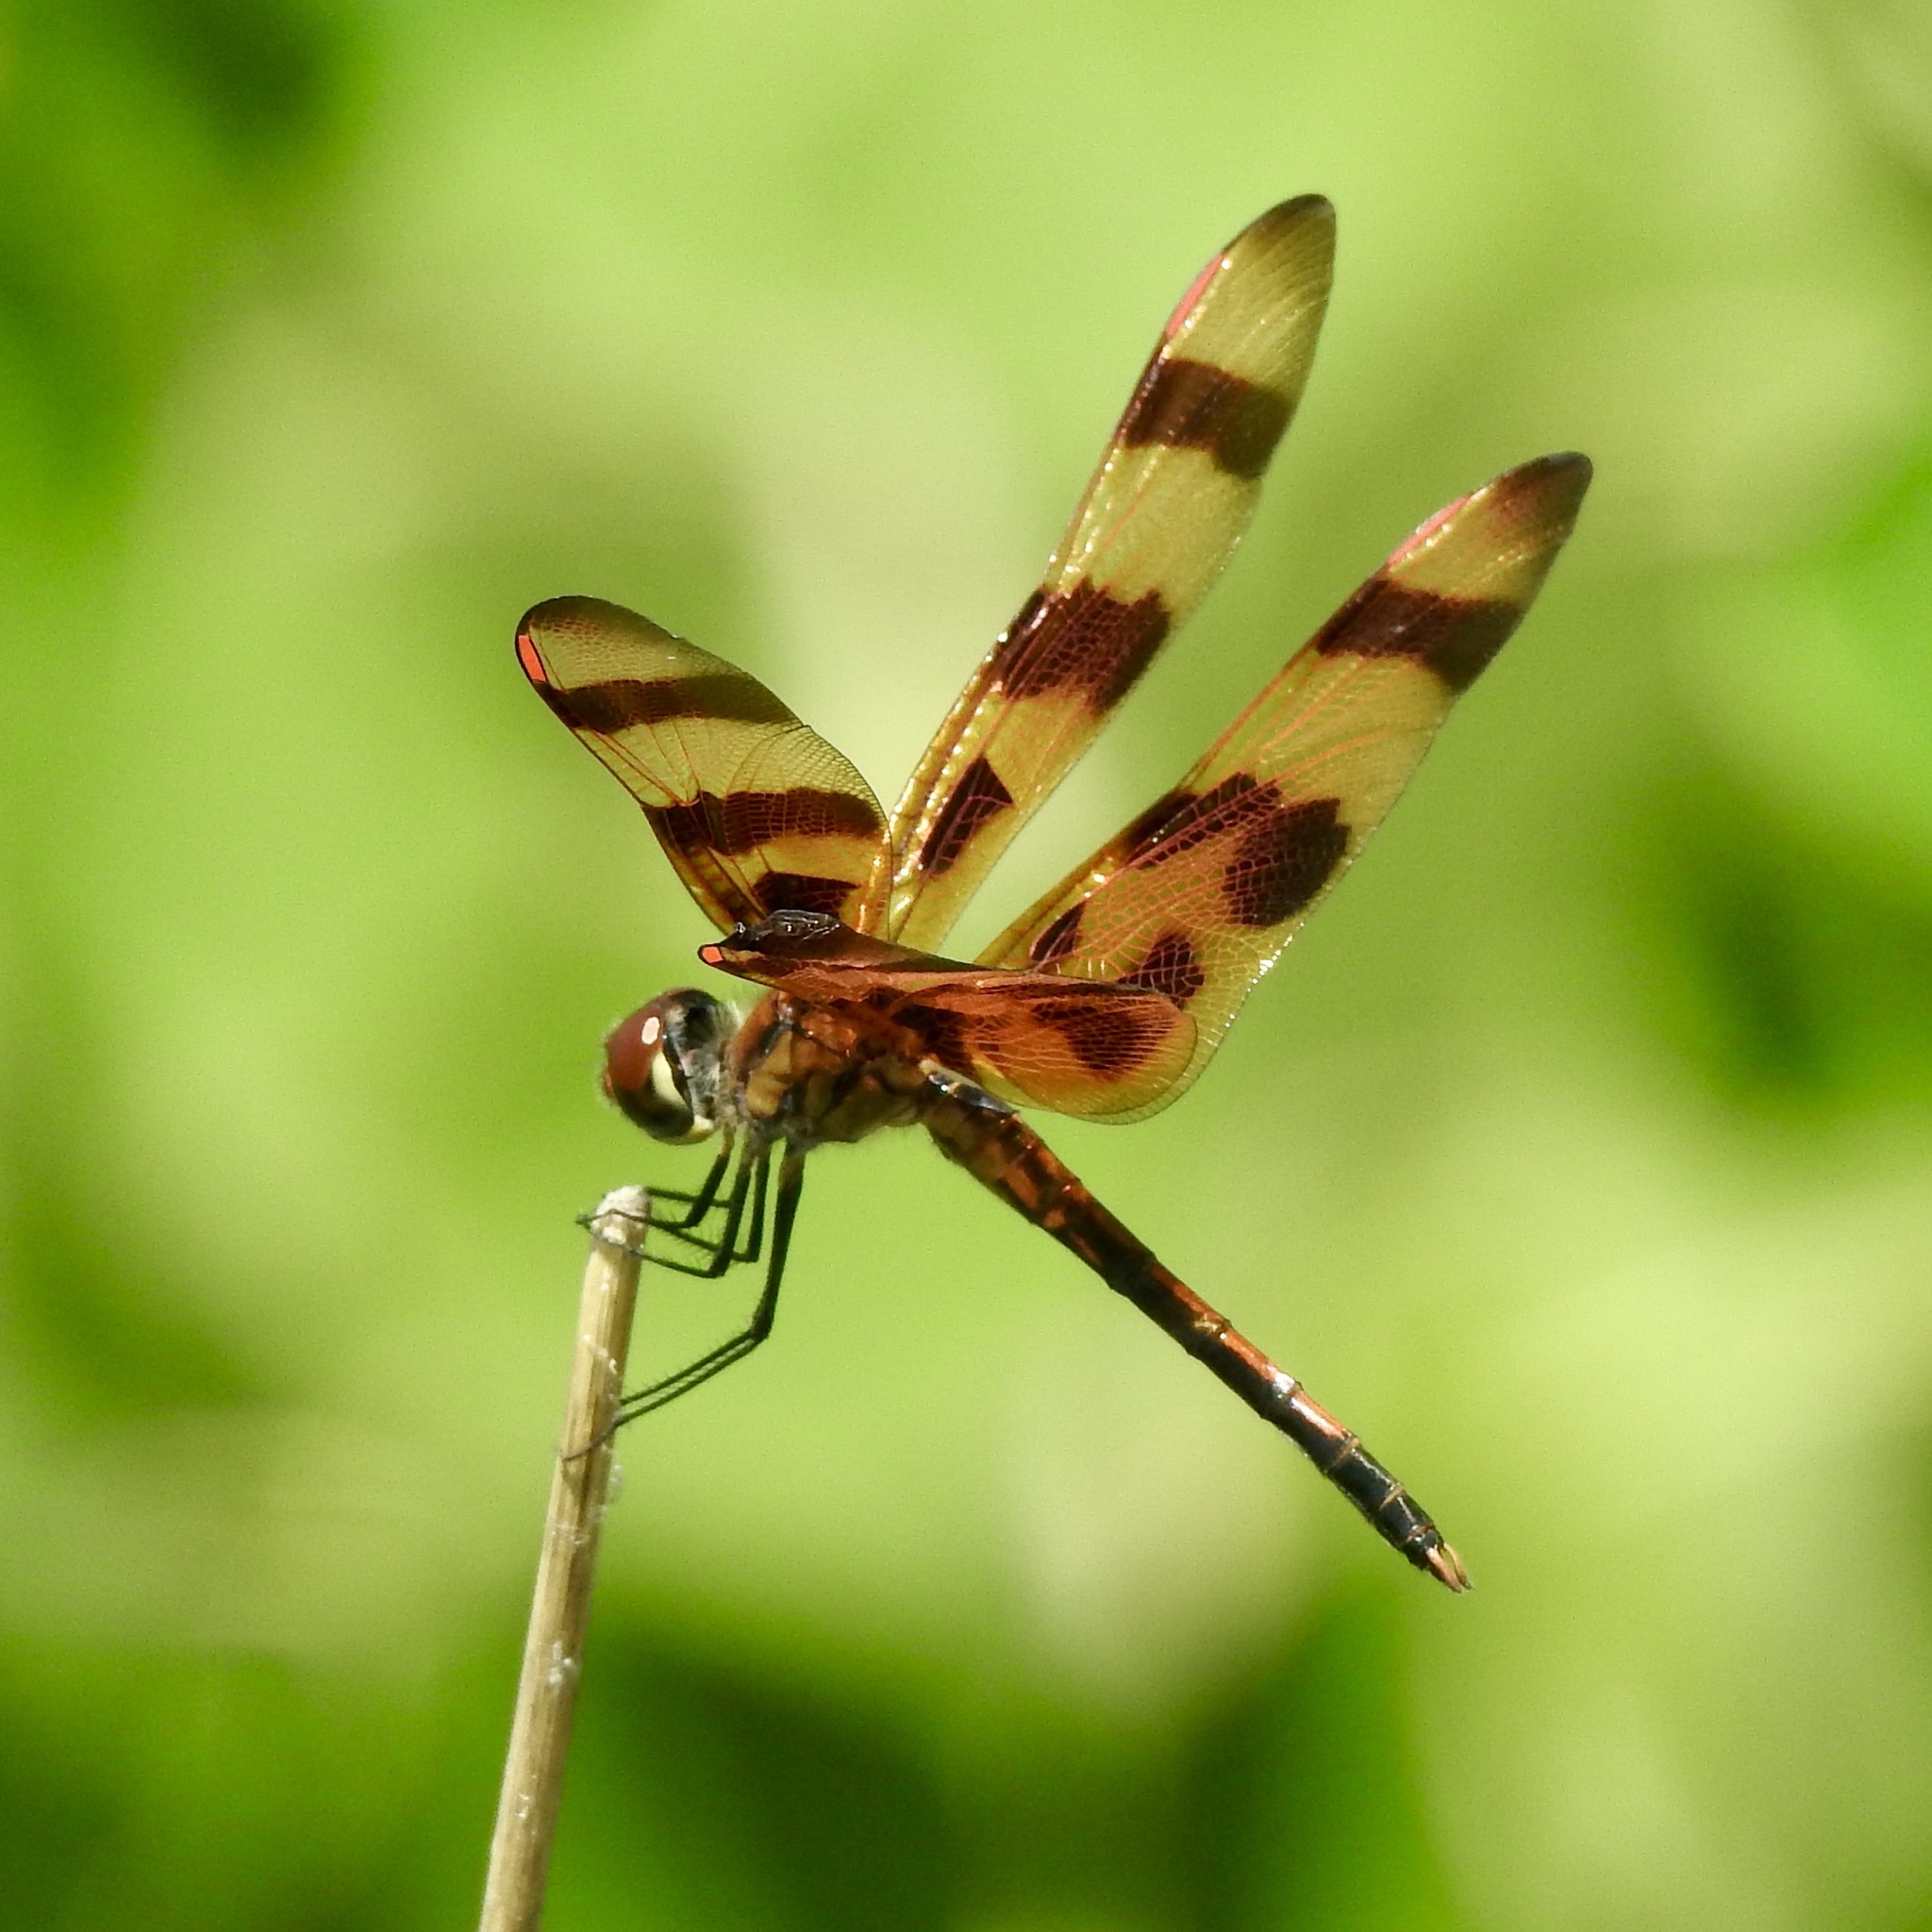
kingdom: Animalia
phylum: Arthropoda
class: Insecta
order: Odonata
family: Libellulidae
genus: Celithemis
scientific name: Celithemis eponina
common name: Halloween pennant
